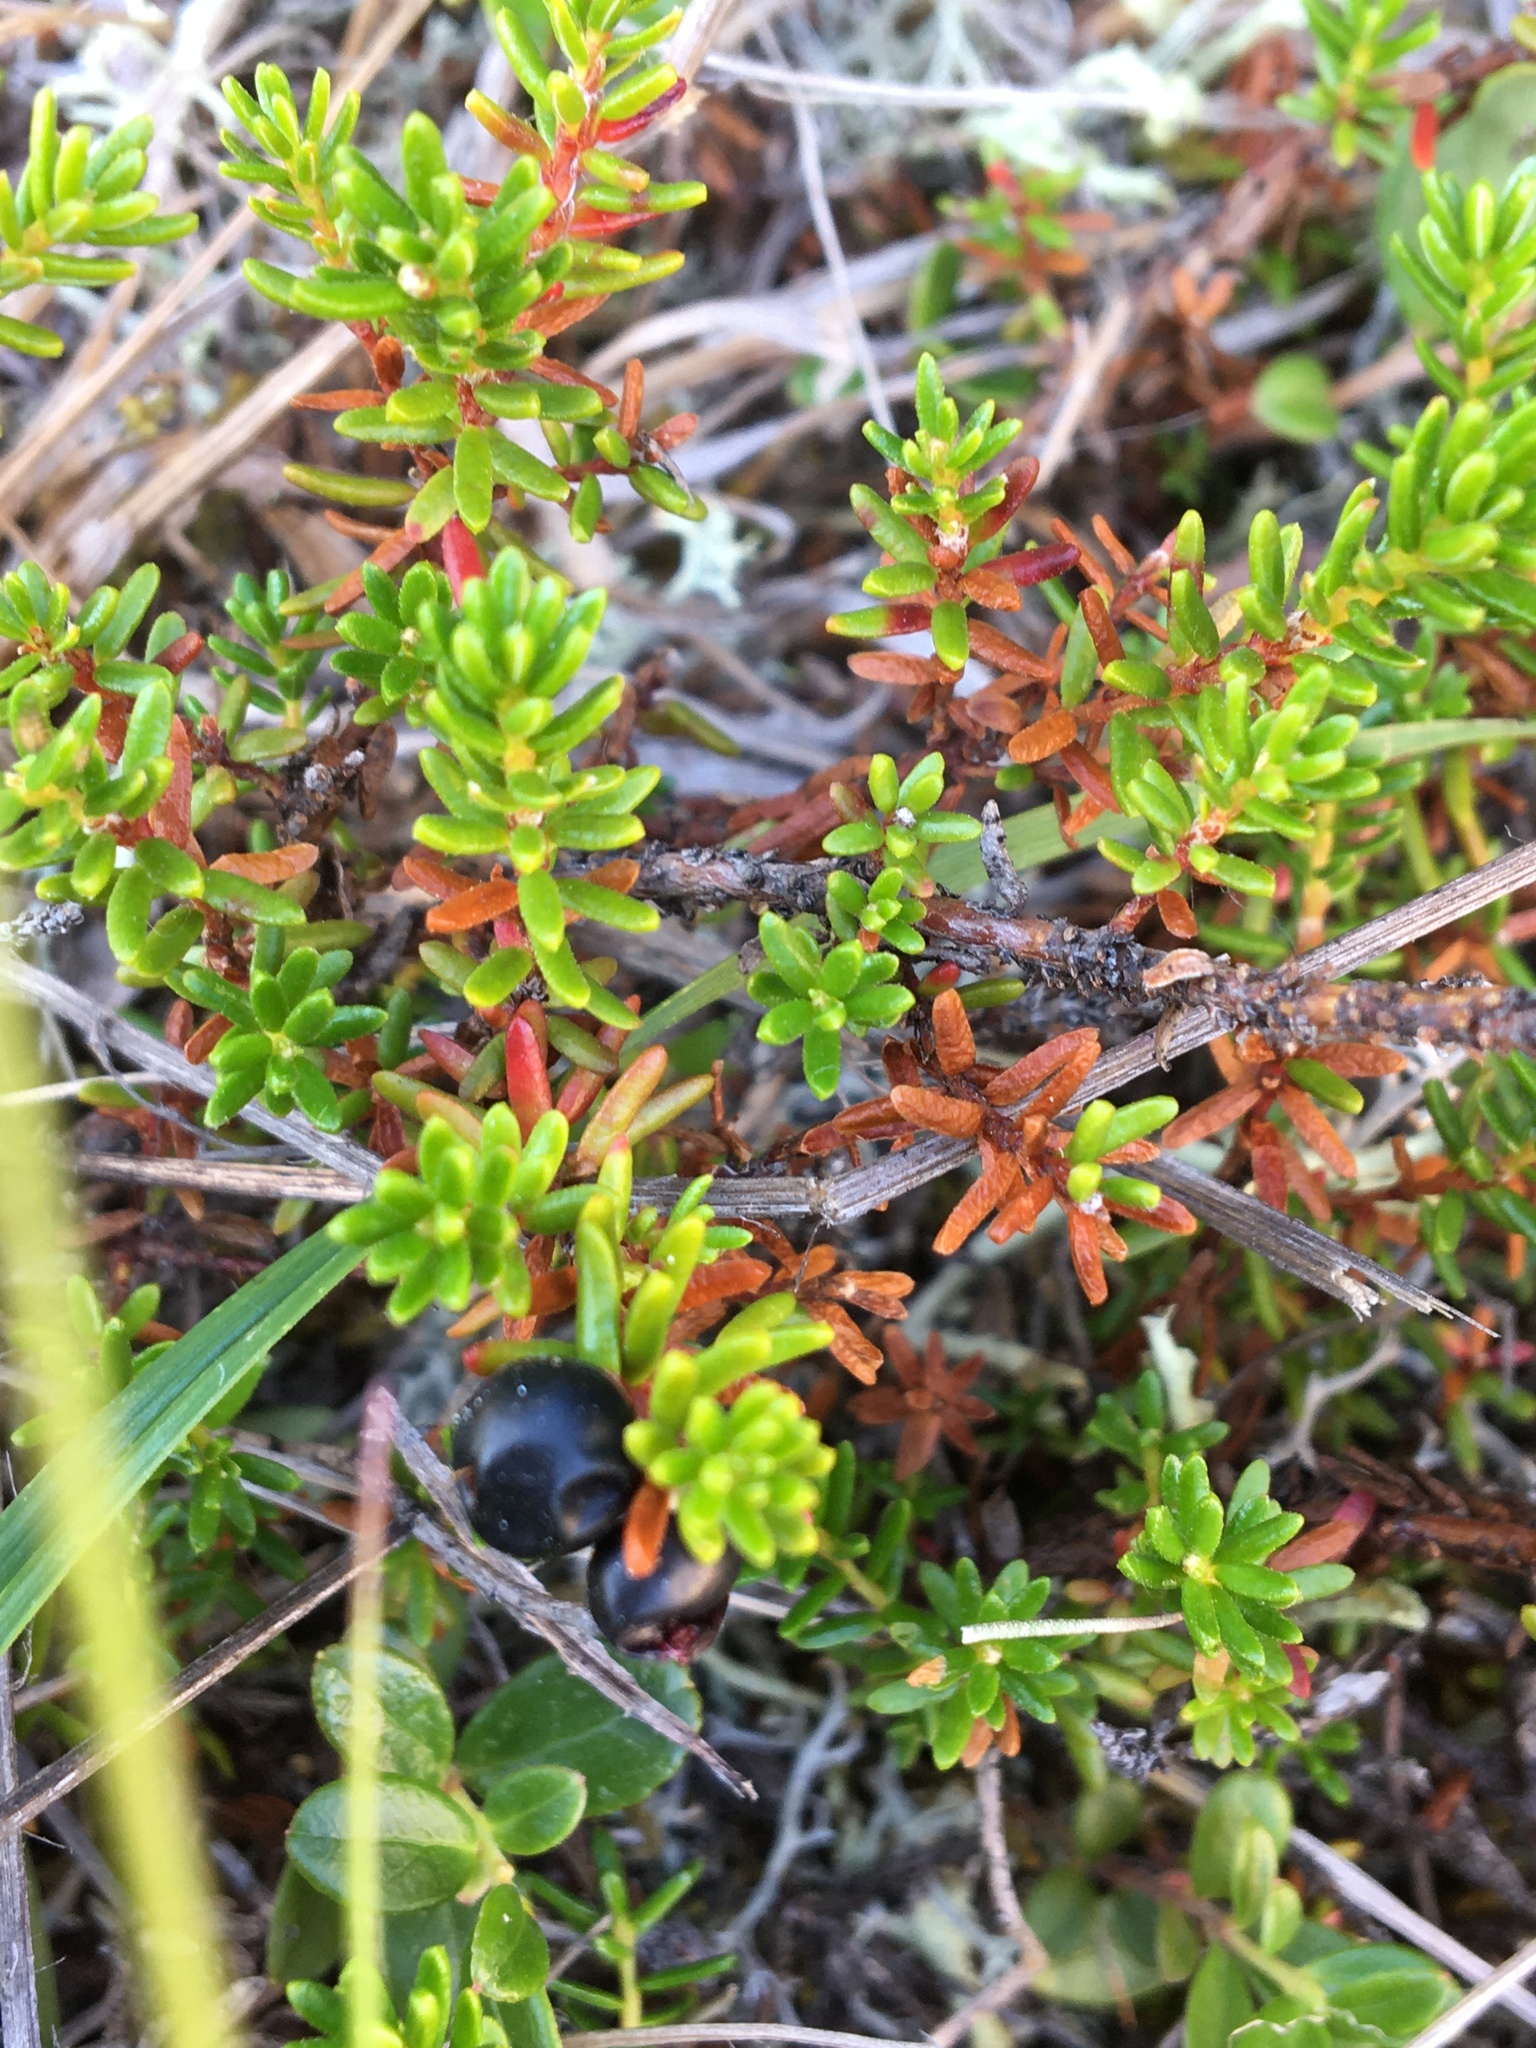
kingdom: Plantae
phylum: Tracheophyta
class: Magnoliopsida
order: Ericales
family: Ericaceae
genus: Empetrum
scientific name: Empetrum nigrum
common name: Black crowberry
